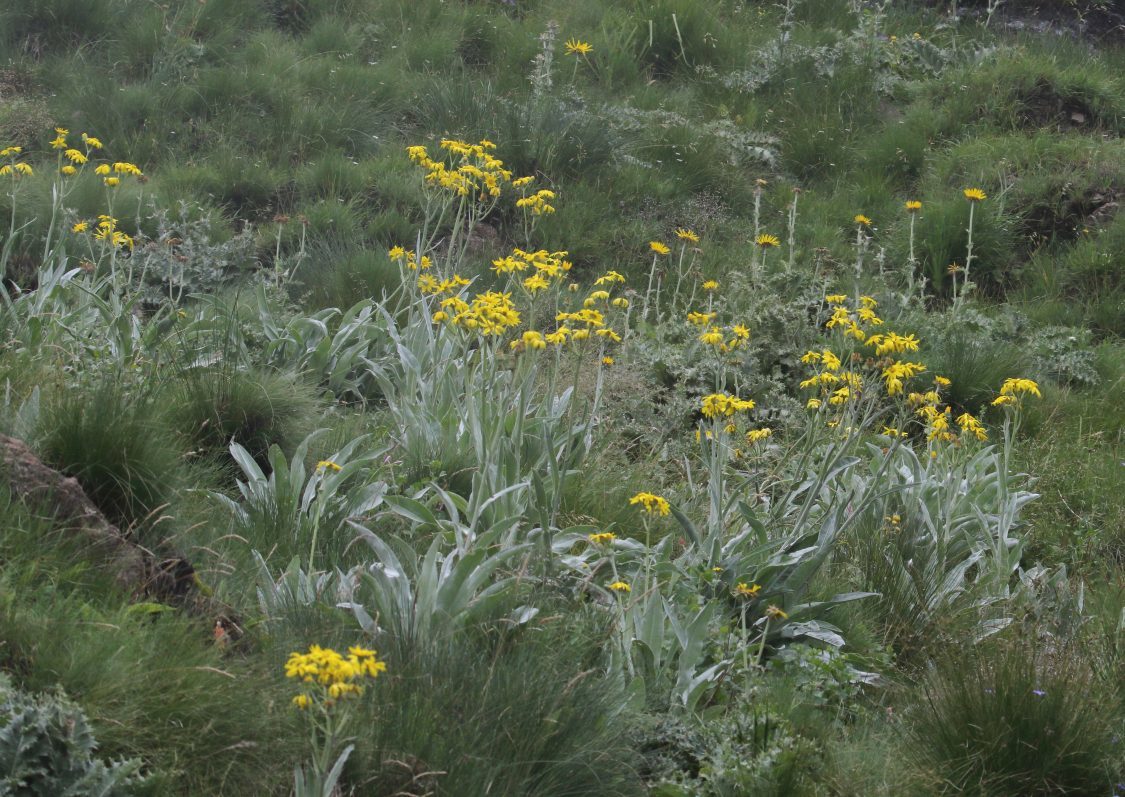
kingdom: Plantae
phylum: Tracheophyta
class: Magnoliopsida
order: Asterales
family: Asteraceae
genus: Senecio
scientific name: Senecio macrospermus
